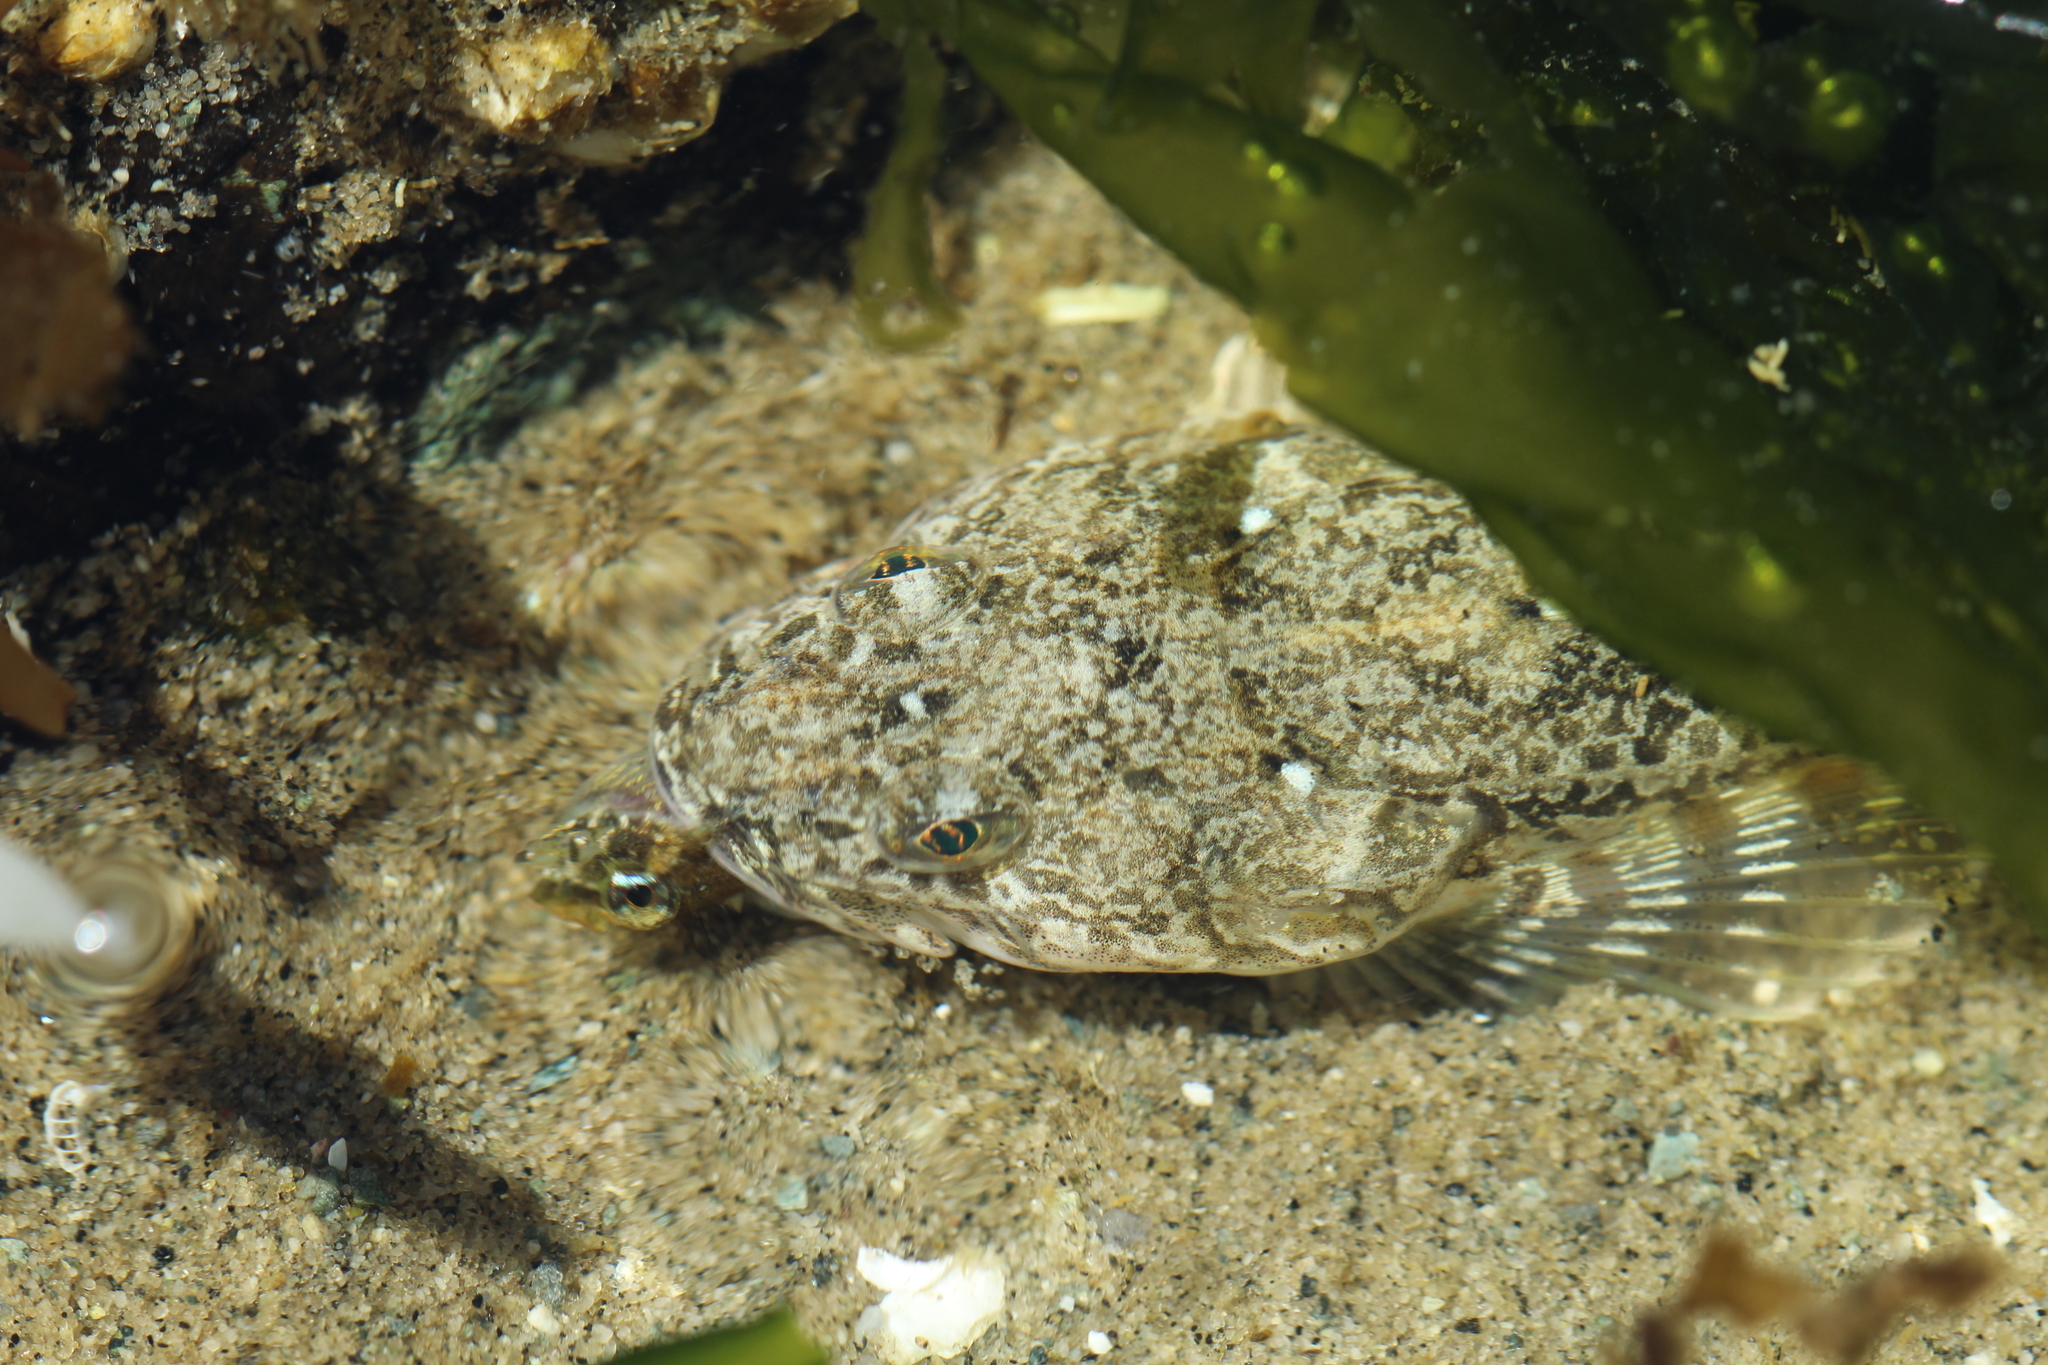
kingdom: Animalia
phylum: Chordata
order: Scorpaeniformes
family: Cottidae
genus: Leptocottus
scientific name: Leptocottus armatus
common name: Pacific staghorn sculpin
